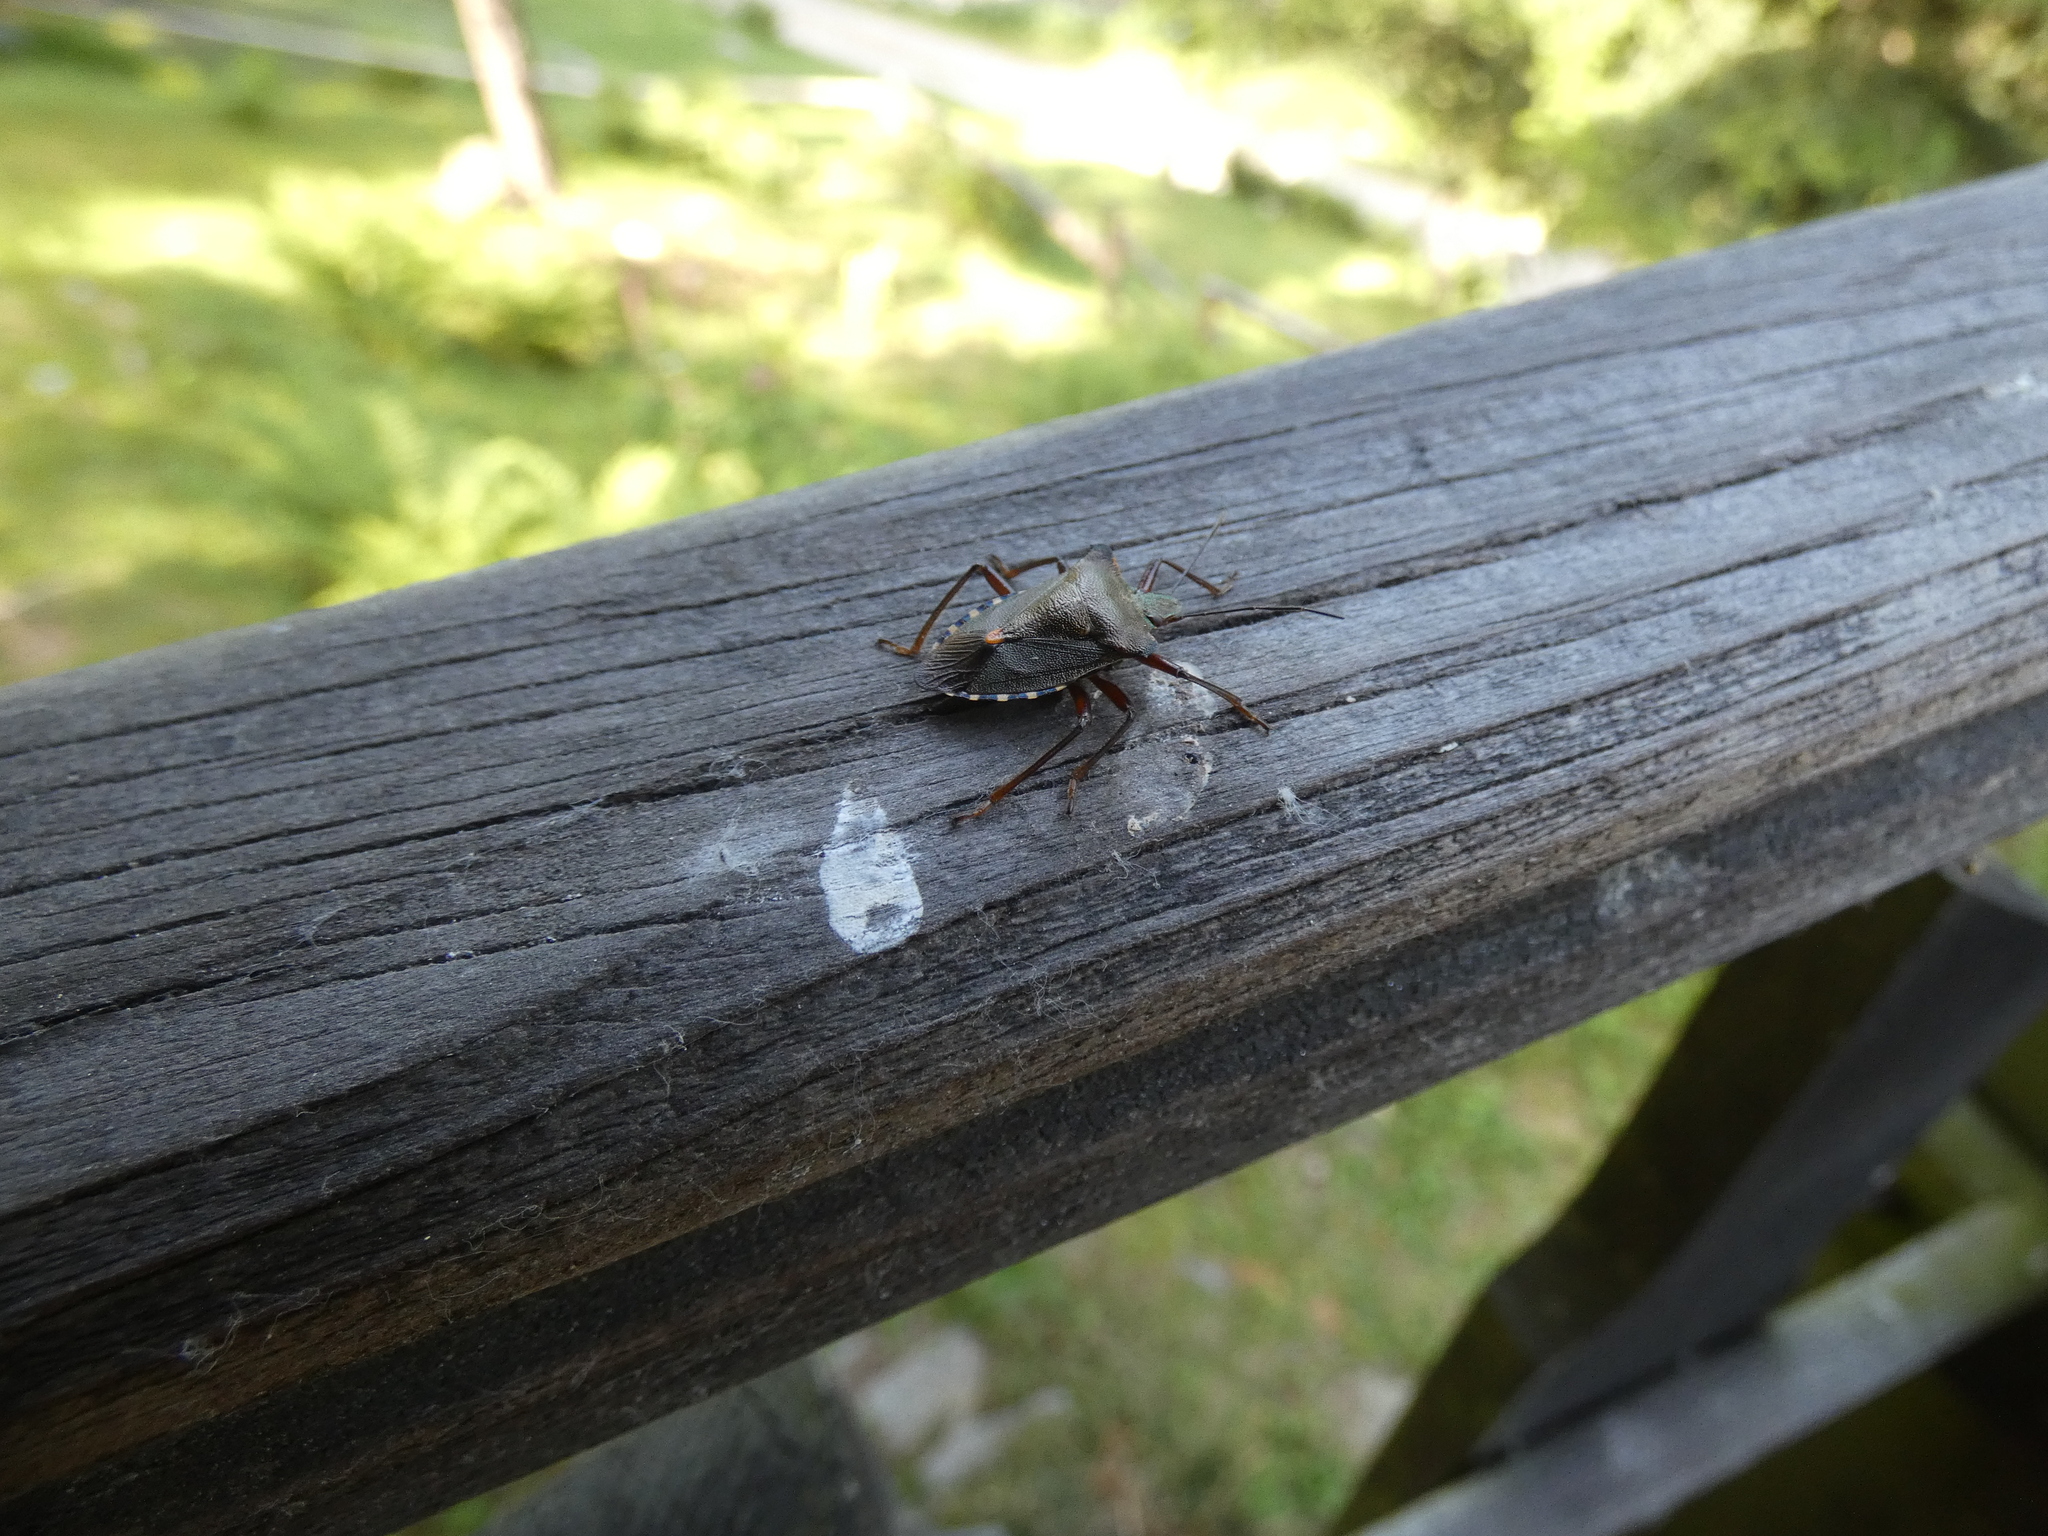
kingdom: Animalia
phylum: Arthropoda
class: Insecta
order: Hemiptera
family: Pentatomidae
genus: Pentatoma
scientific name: Pentatoma rufipes
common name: Forest bug
